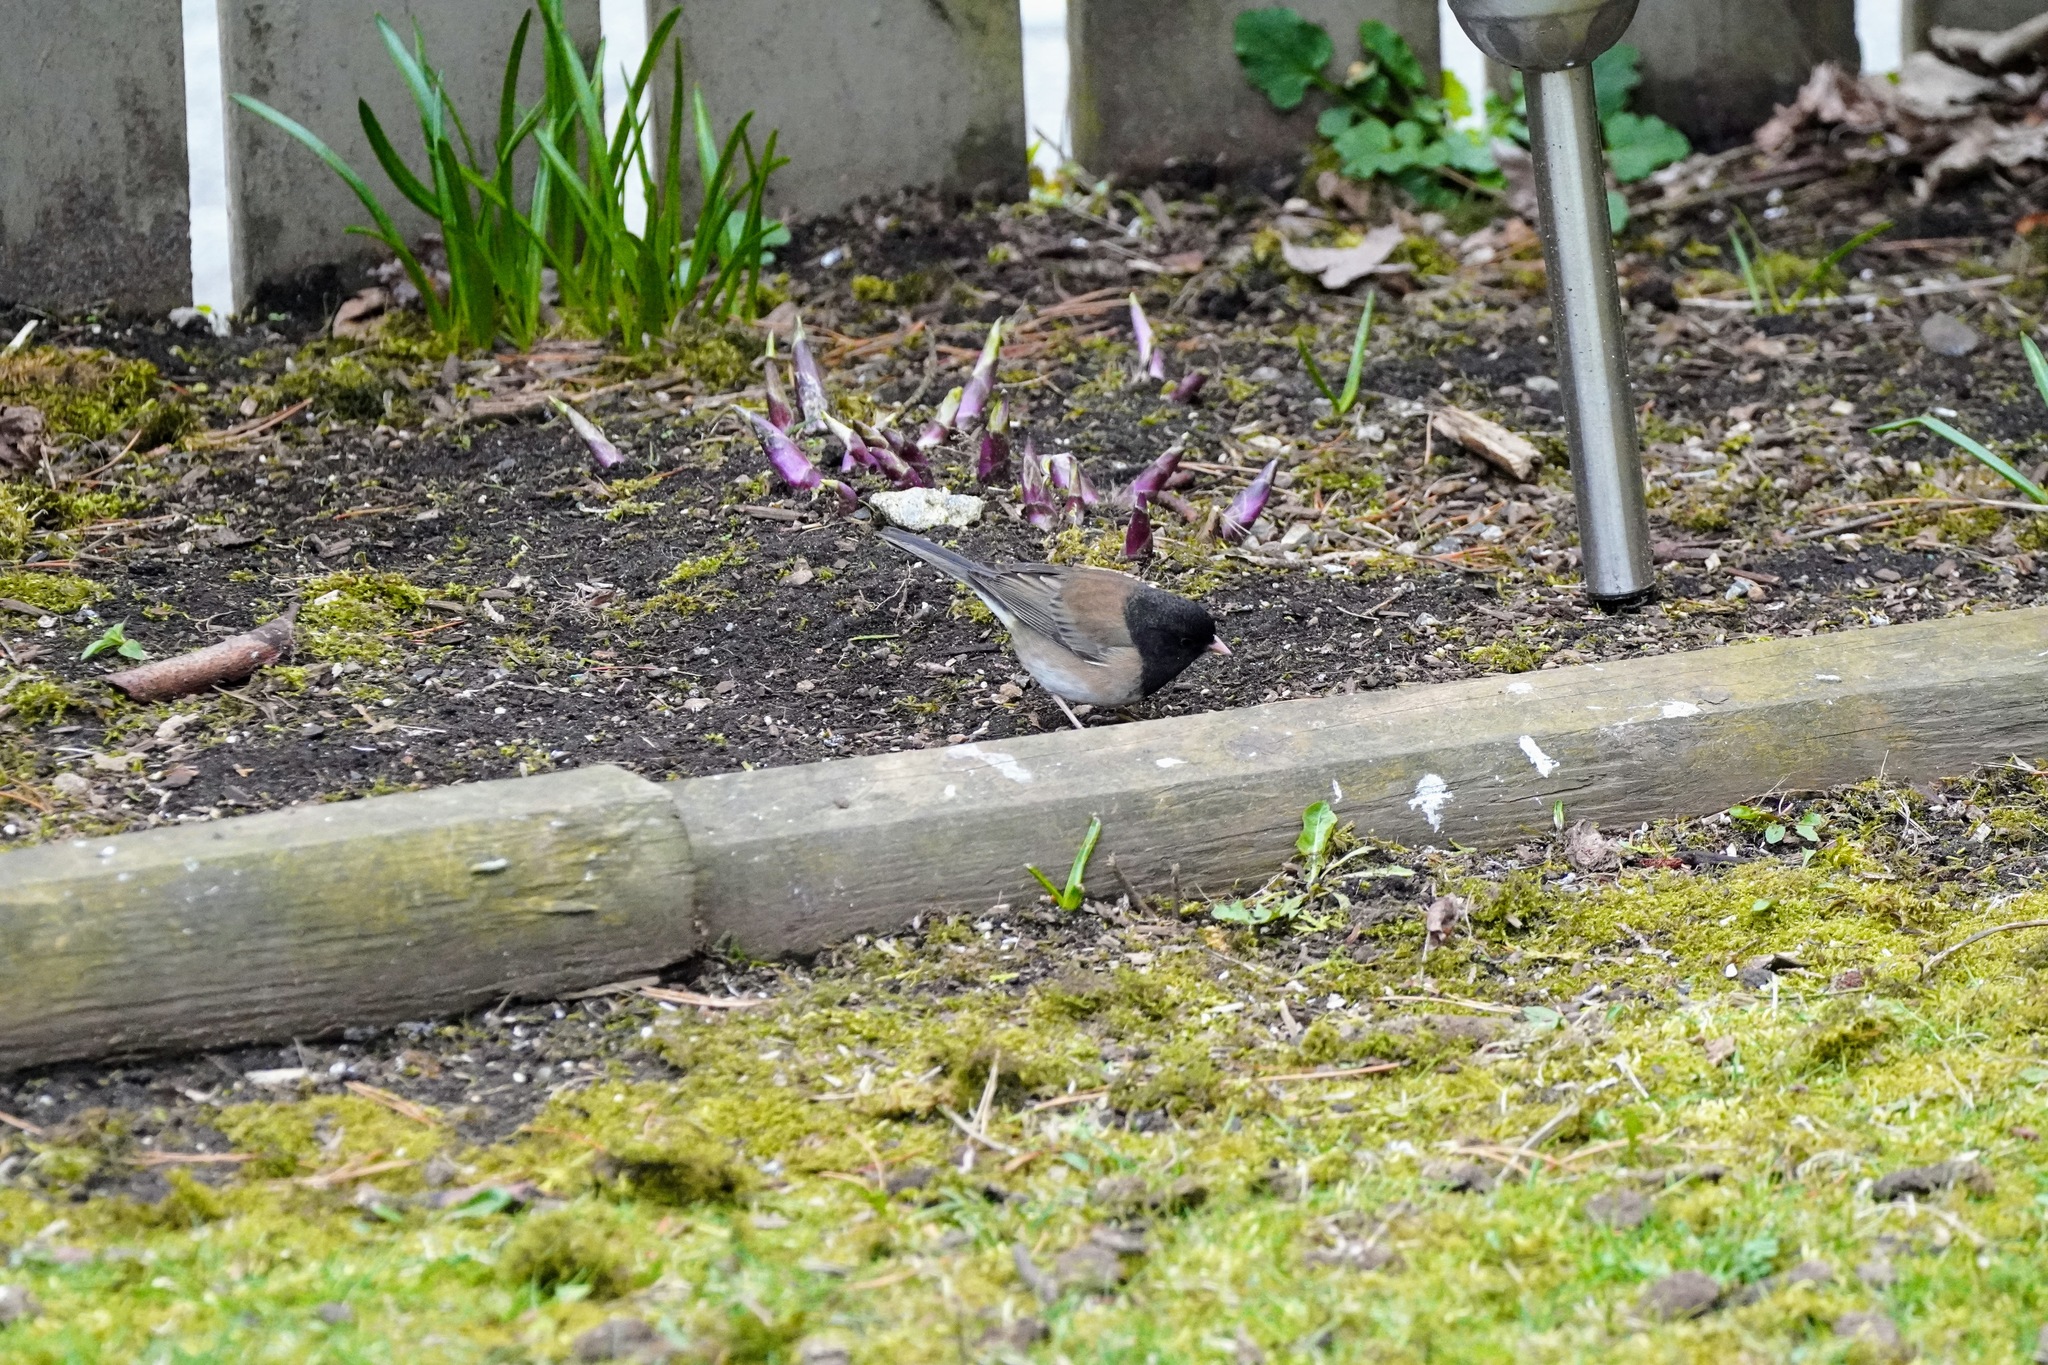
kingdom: Animalia
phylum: Chordata
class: Aves
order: Passeriformes
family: Passerellidae
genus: Junco
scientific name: Junco hyemalis
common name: Dark-eyed junco
